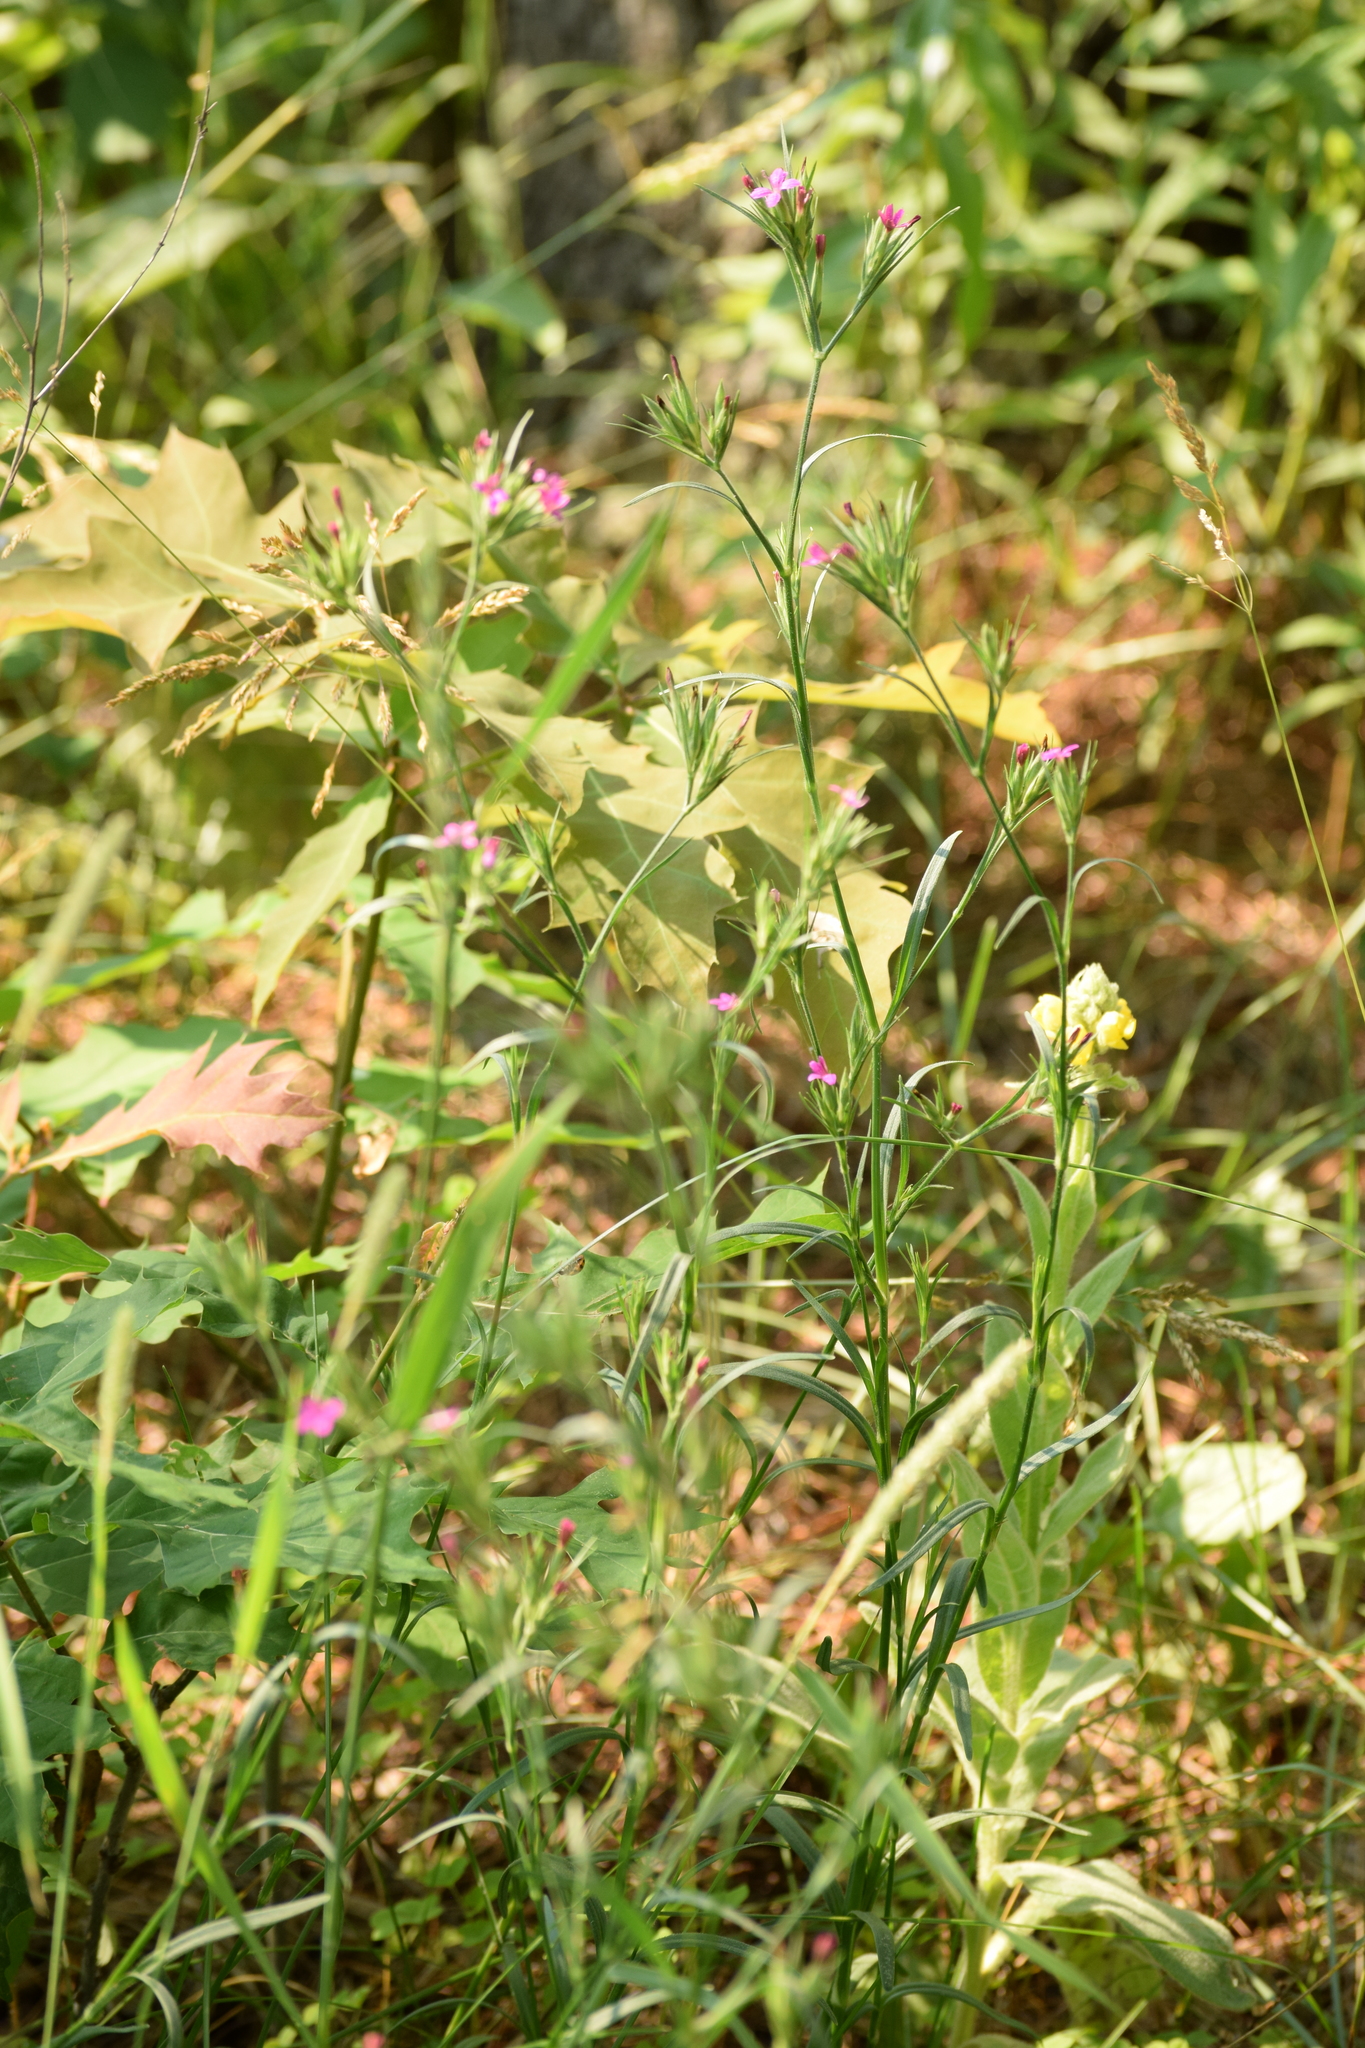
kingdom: Plantae
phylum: Tracheophyta
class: Magnoliopsida
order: Caryophyllales
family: Caryophyllaceae
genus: Dianthus
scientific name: Dianthus armeria
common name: Deptford pink
